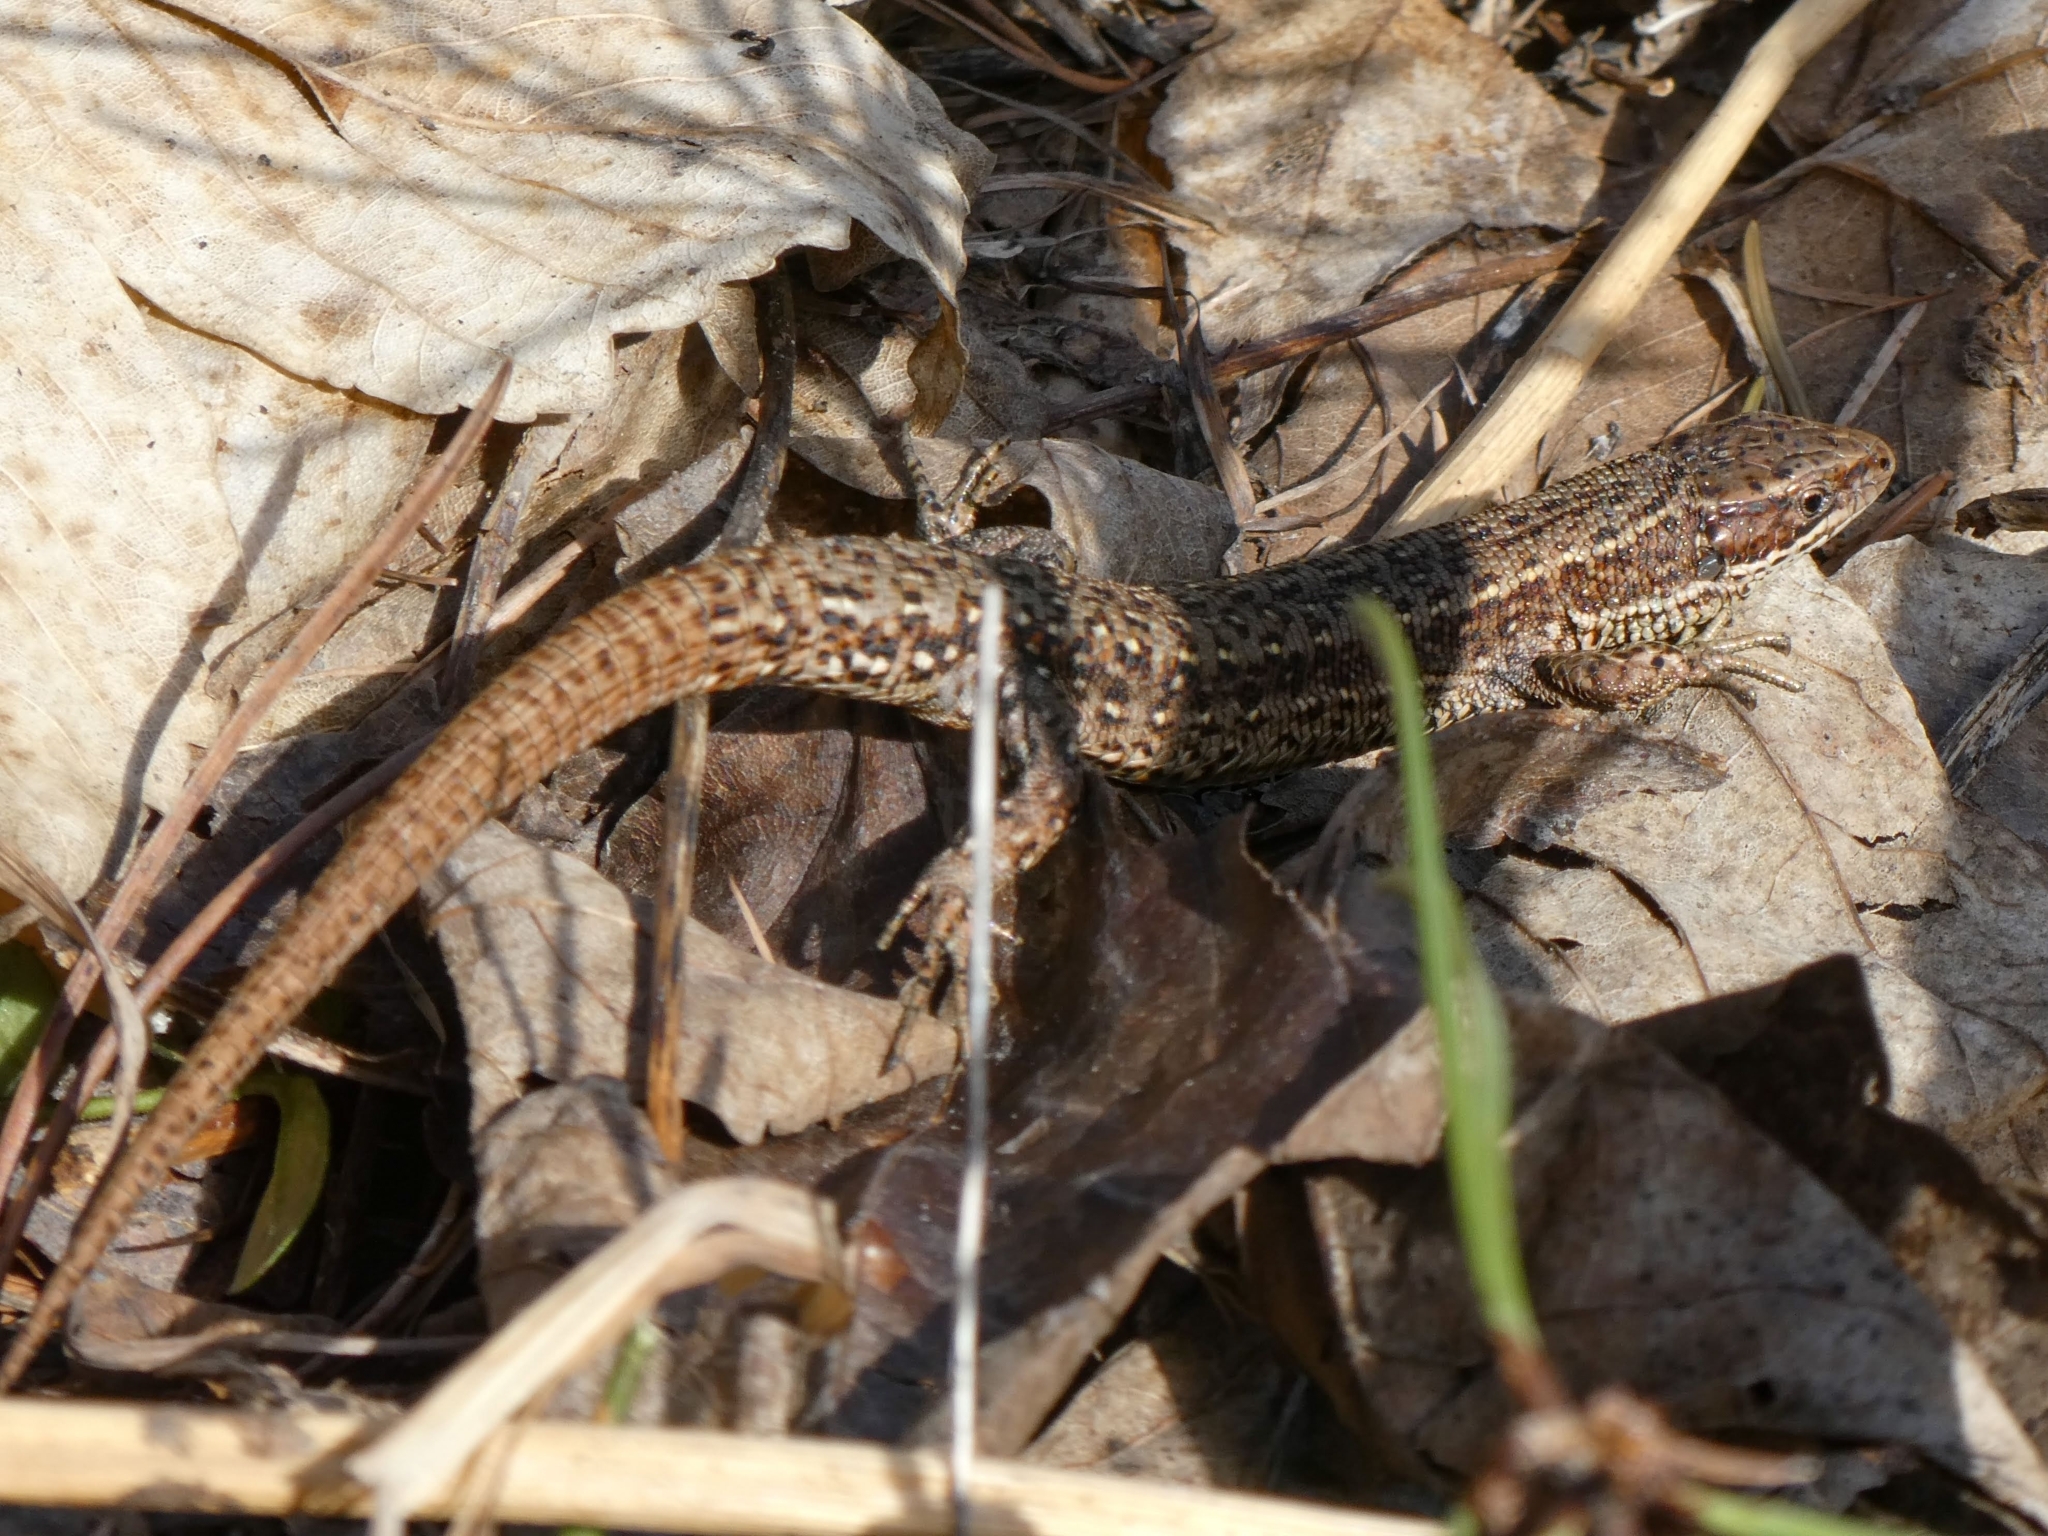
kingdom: Animalia
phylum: Chordata
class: Squamata
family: Lacertidae
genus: Zootoca
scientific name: Zootoca vivipara
